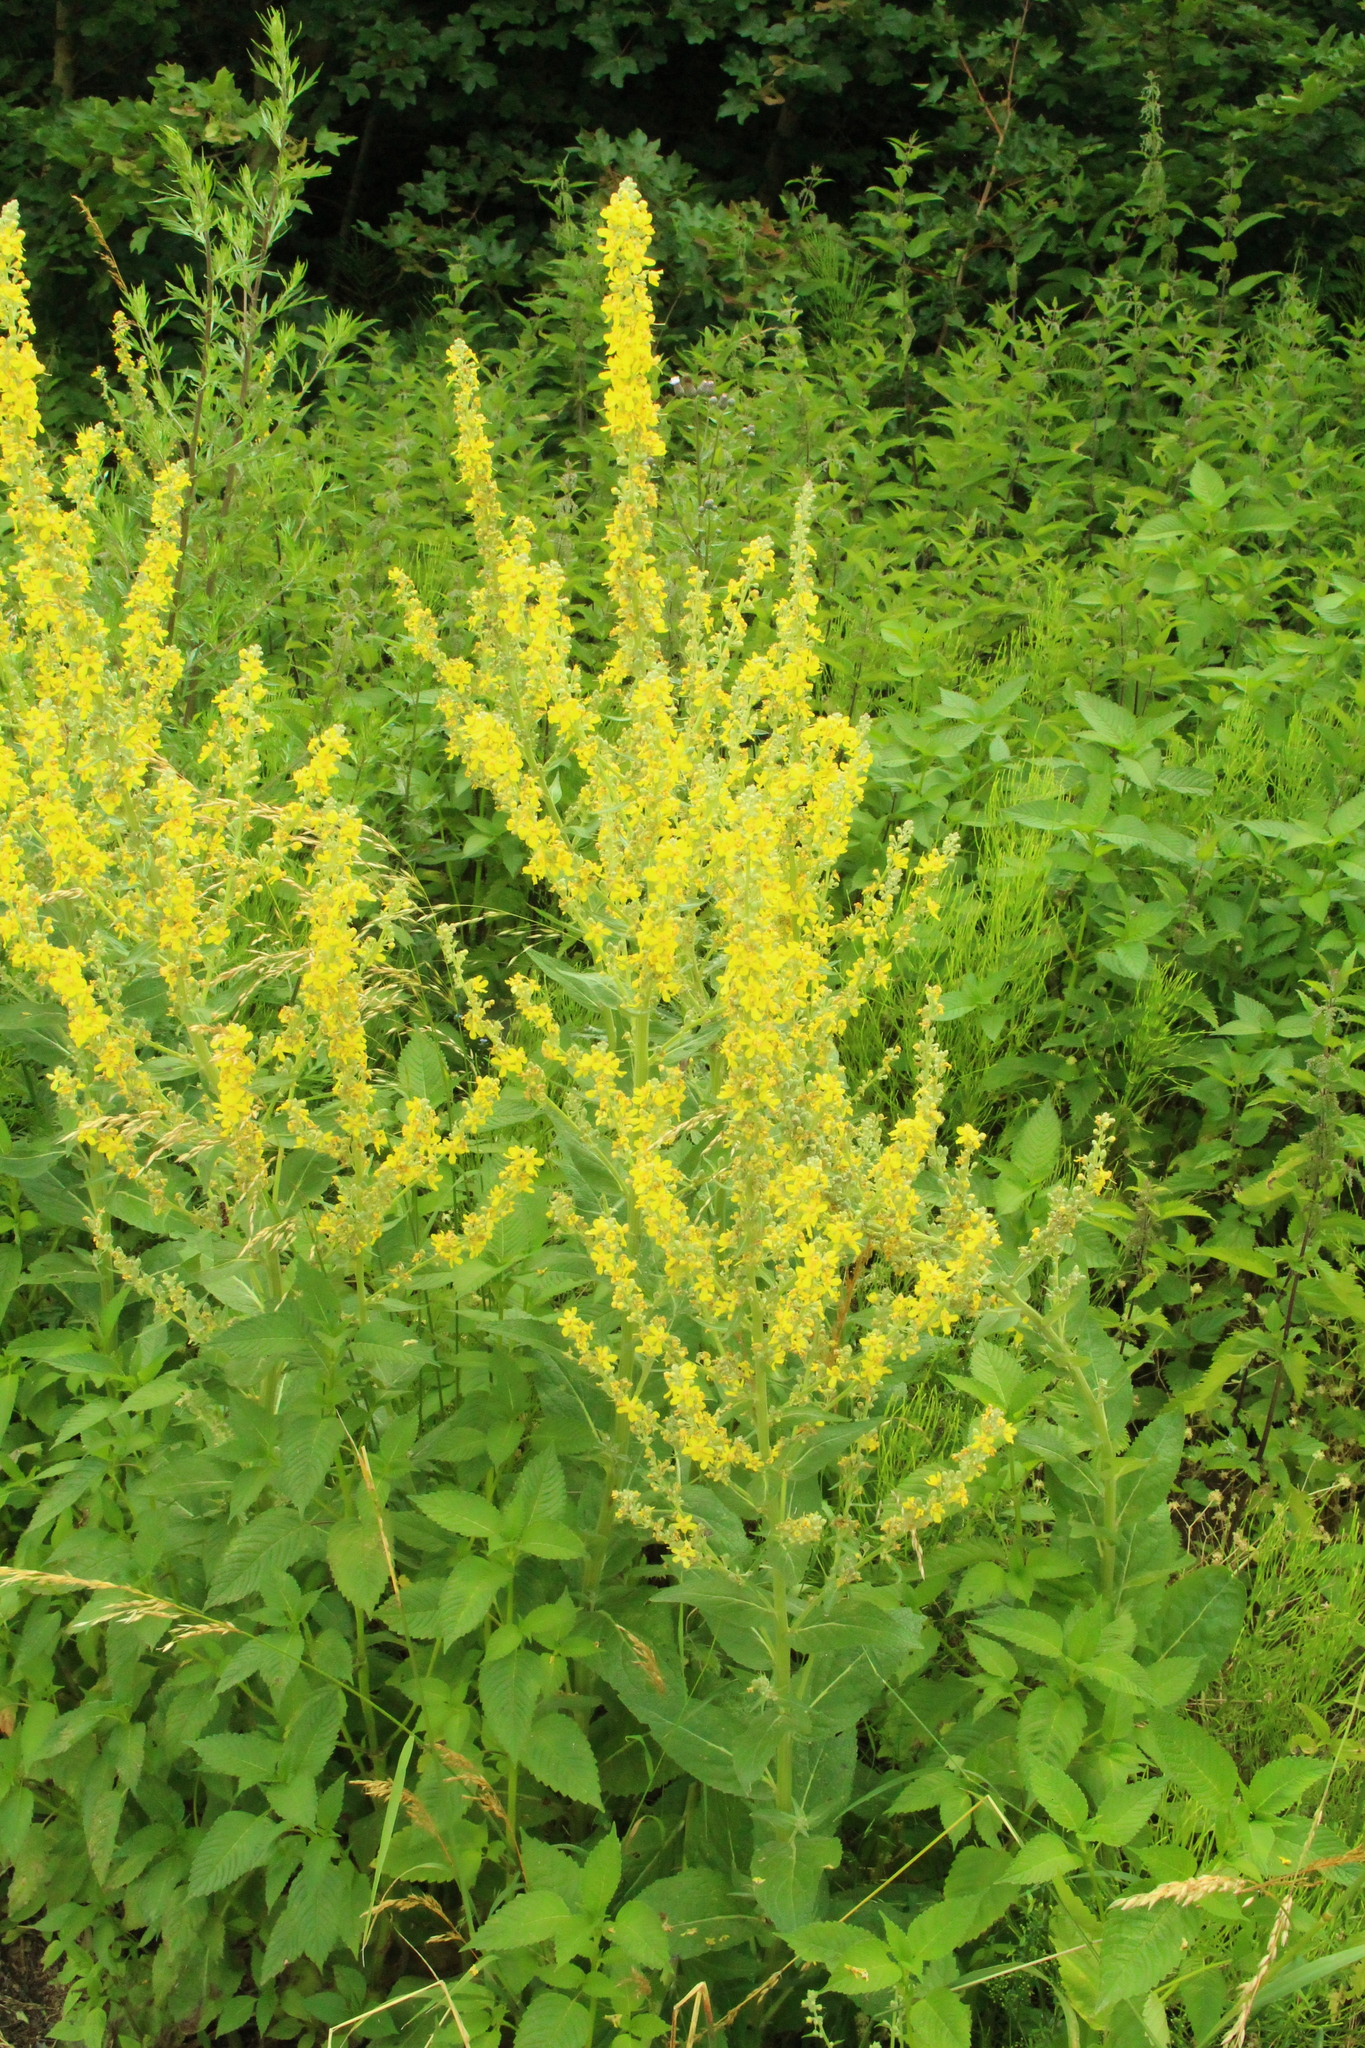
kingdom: Plantae
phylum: Tracheophyta
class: Magnoliopsida
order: Lamiales
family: Scrophulariaceae
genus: Verbascum
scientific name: Verbascum lychnitis
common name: White mullein
